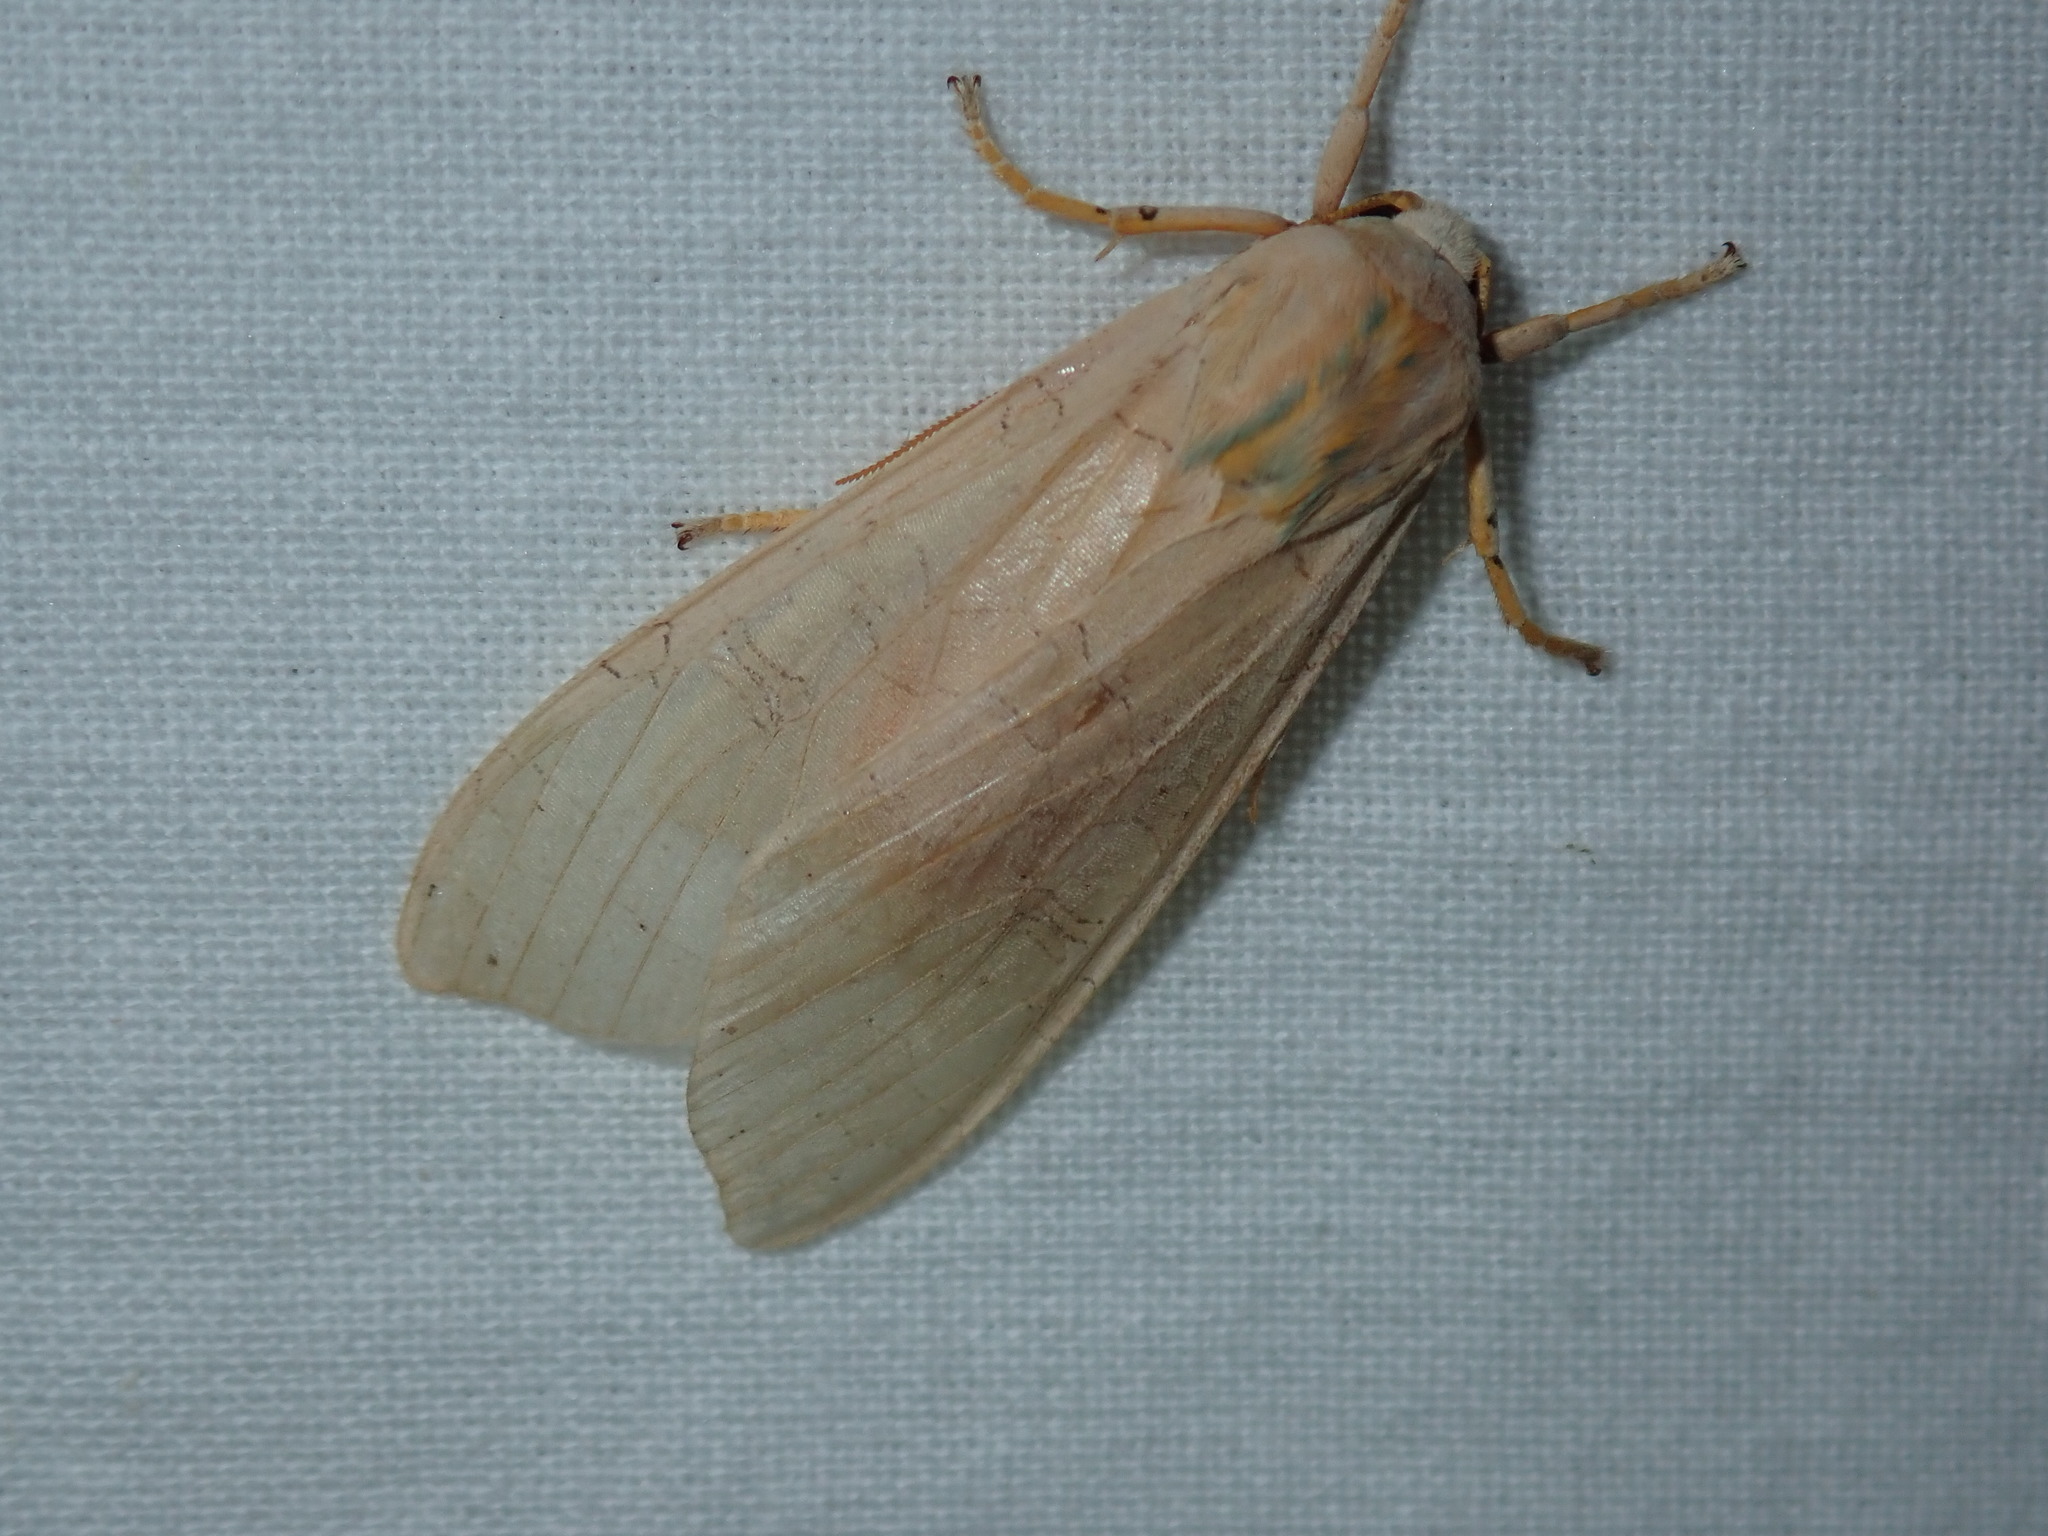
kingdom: Animalia
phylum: Arthropoda
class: Insecta
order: Lepidoptera
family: Erebidae
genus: Halysidota
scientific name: Halysidota
